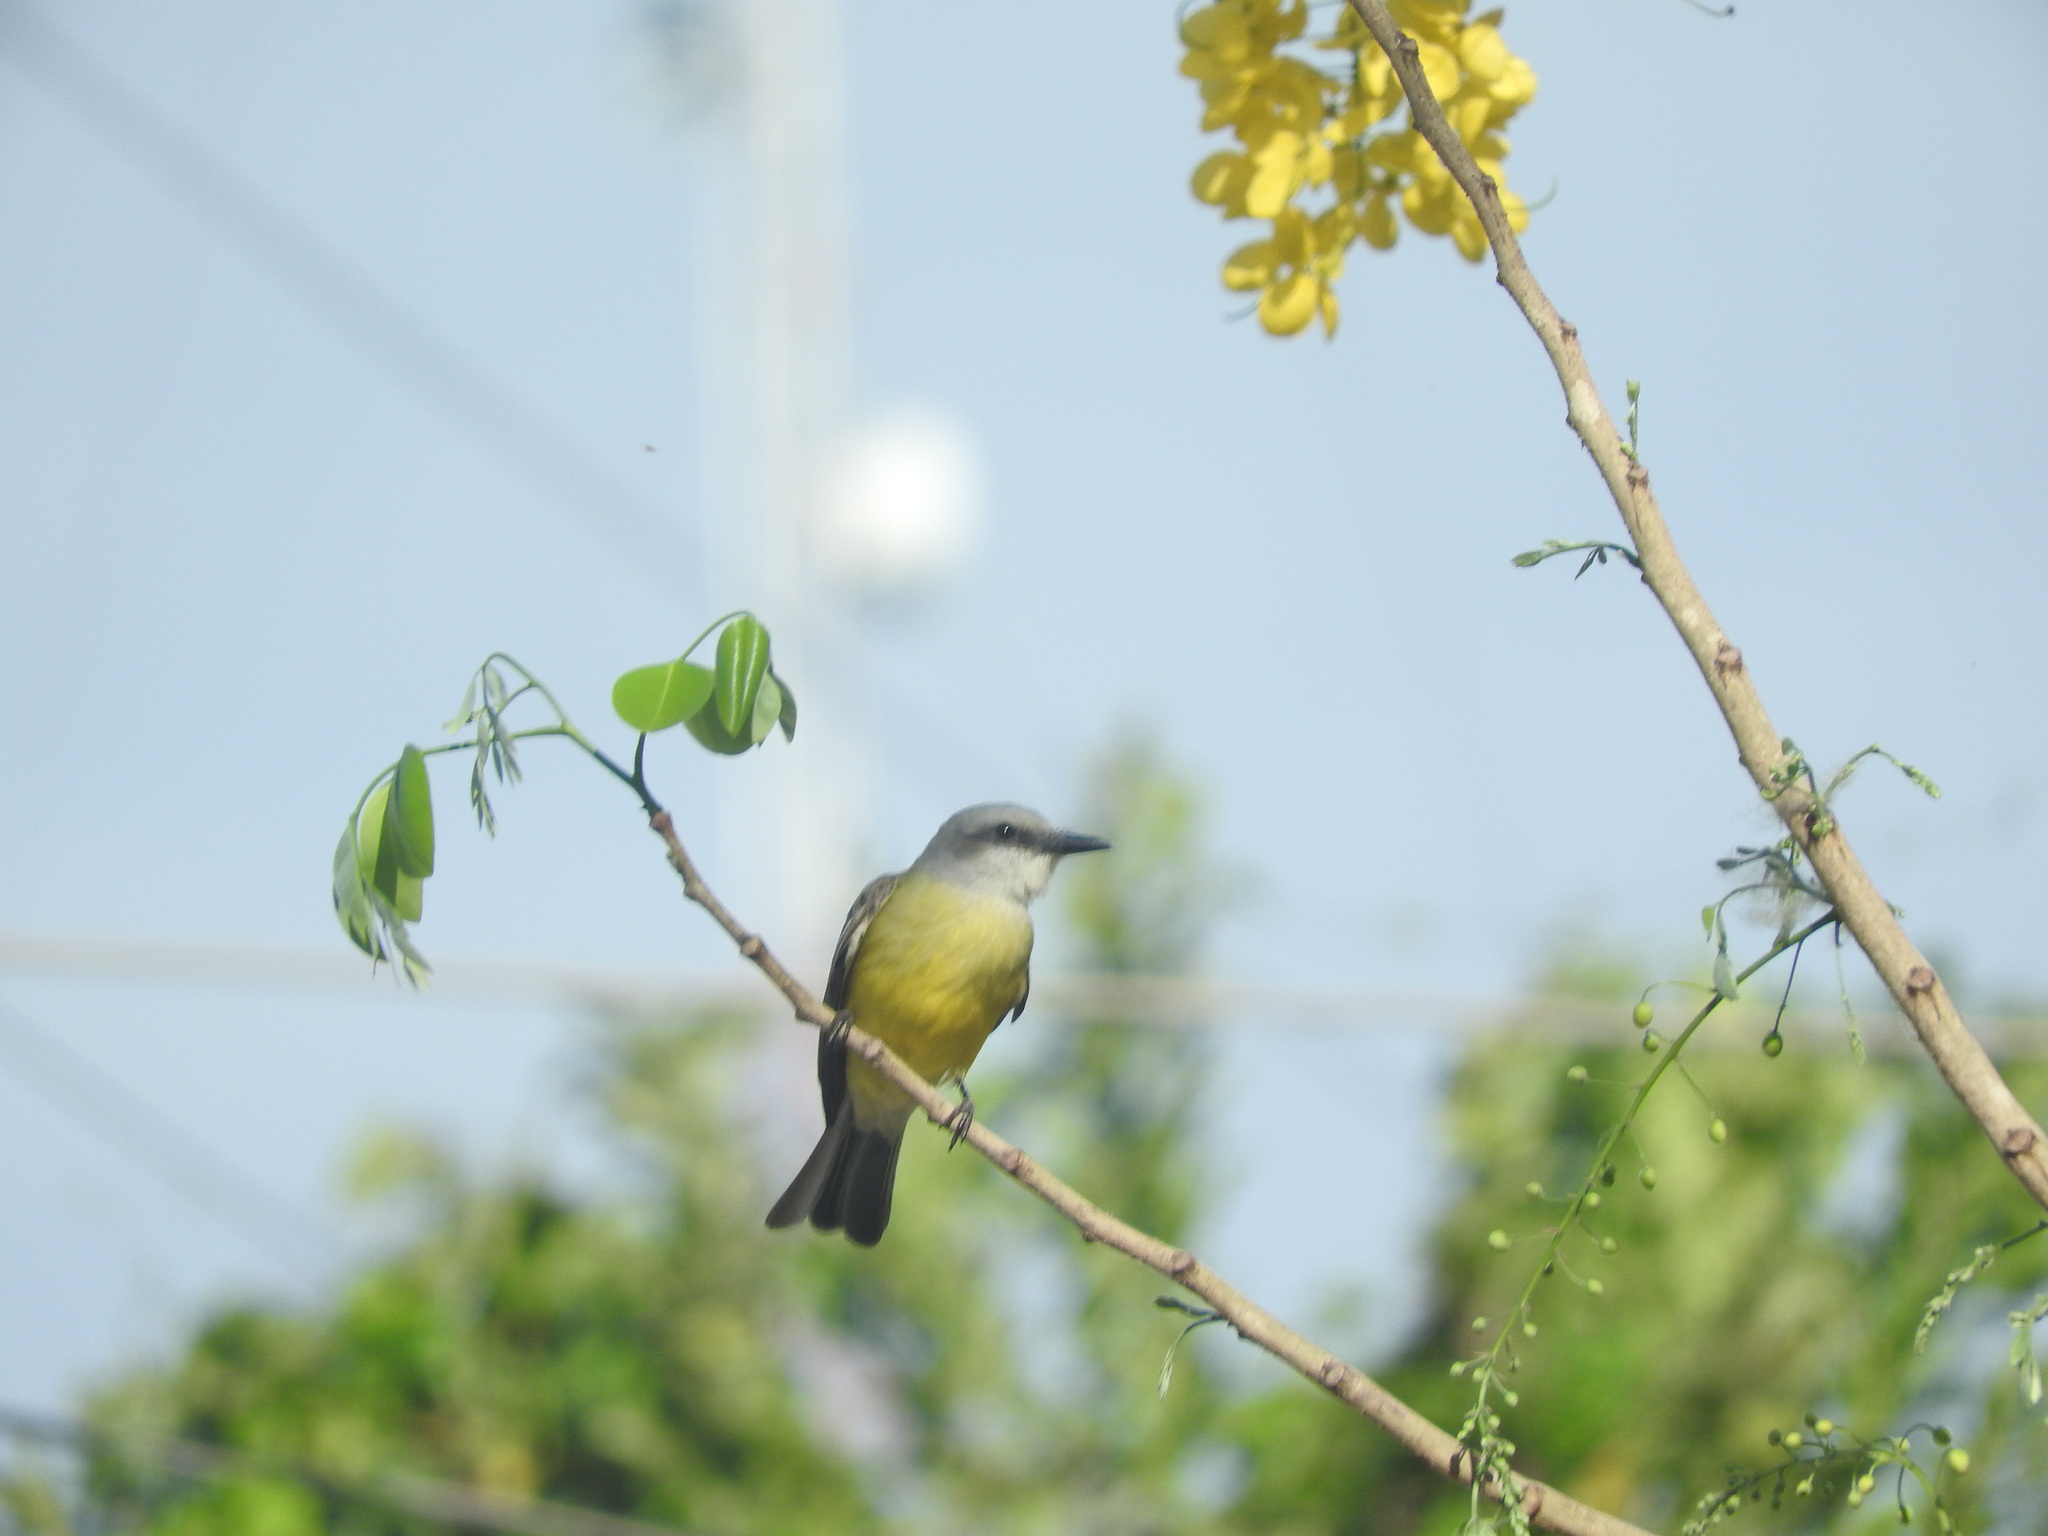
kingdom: Animalia
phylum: Chordata
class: Aves
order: Passeriformes
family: Tyrannidae
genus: Tyrannus
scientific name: Tyrannus melancholicus
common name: Tropical kingbird
